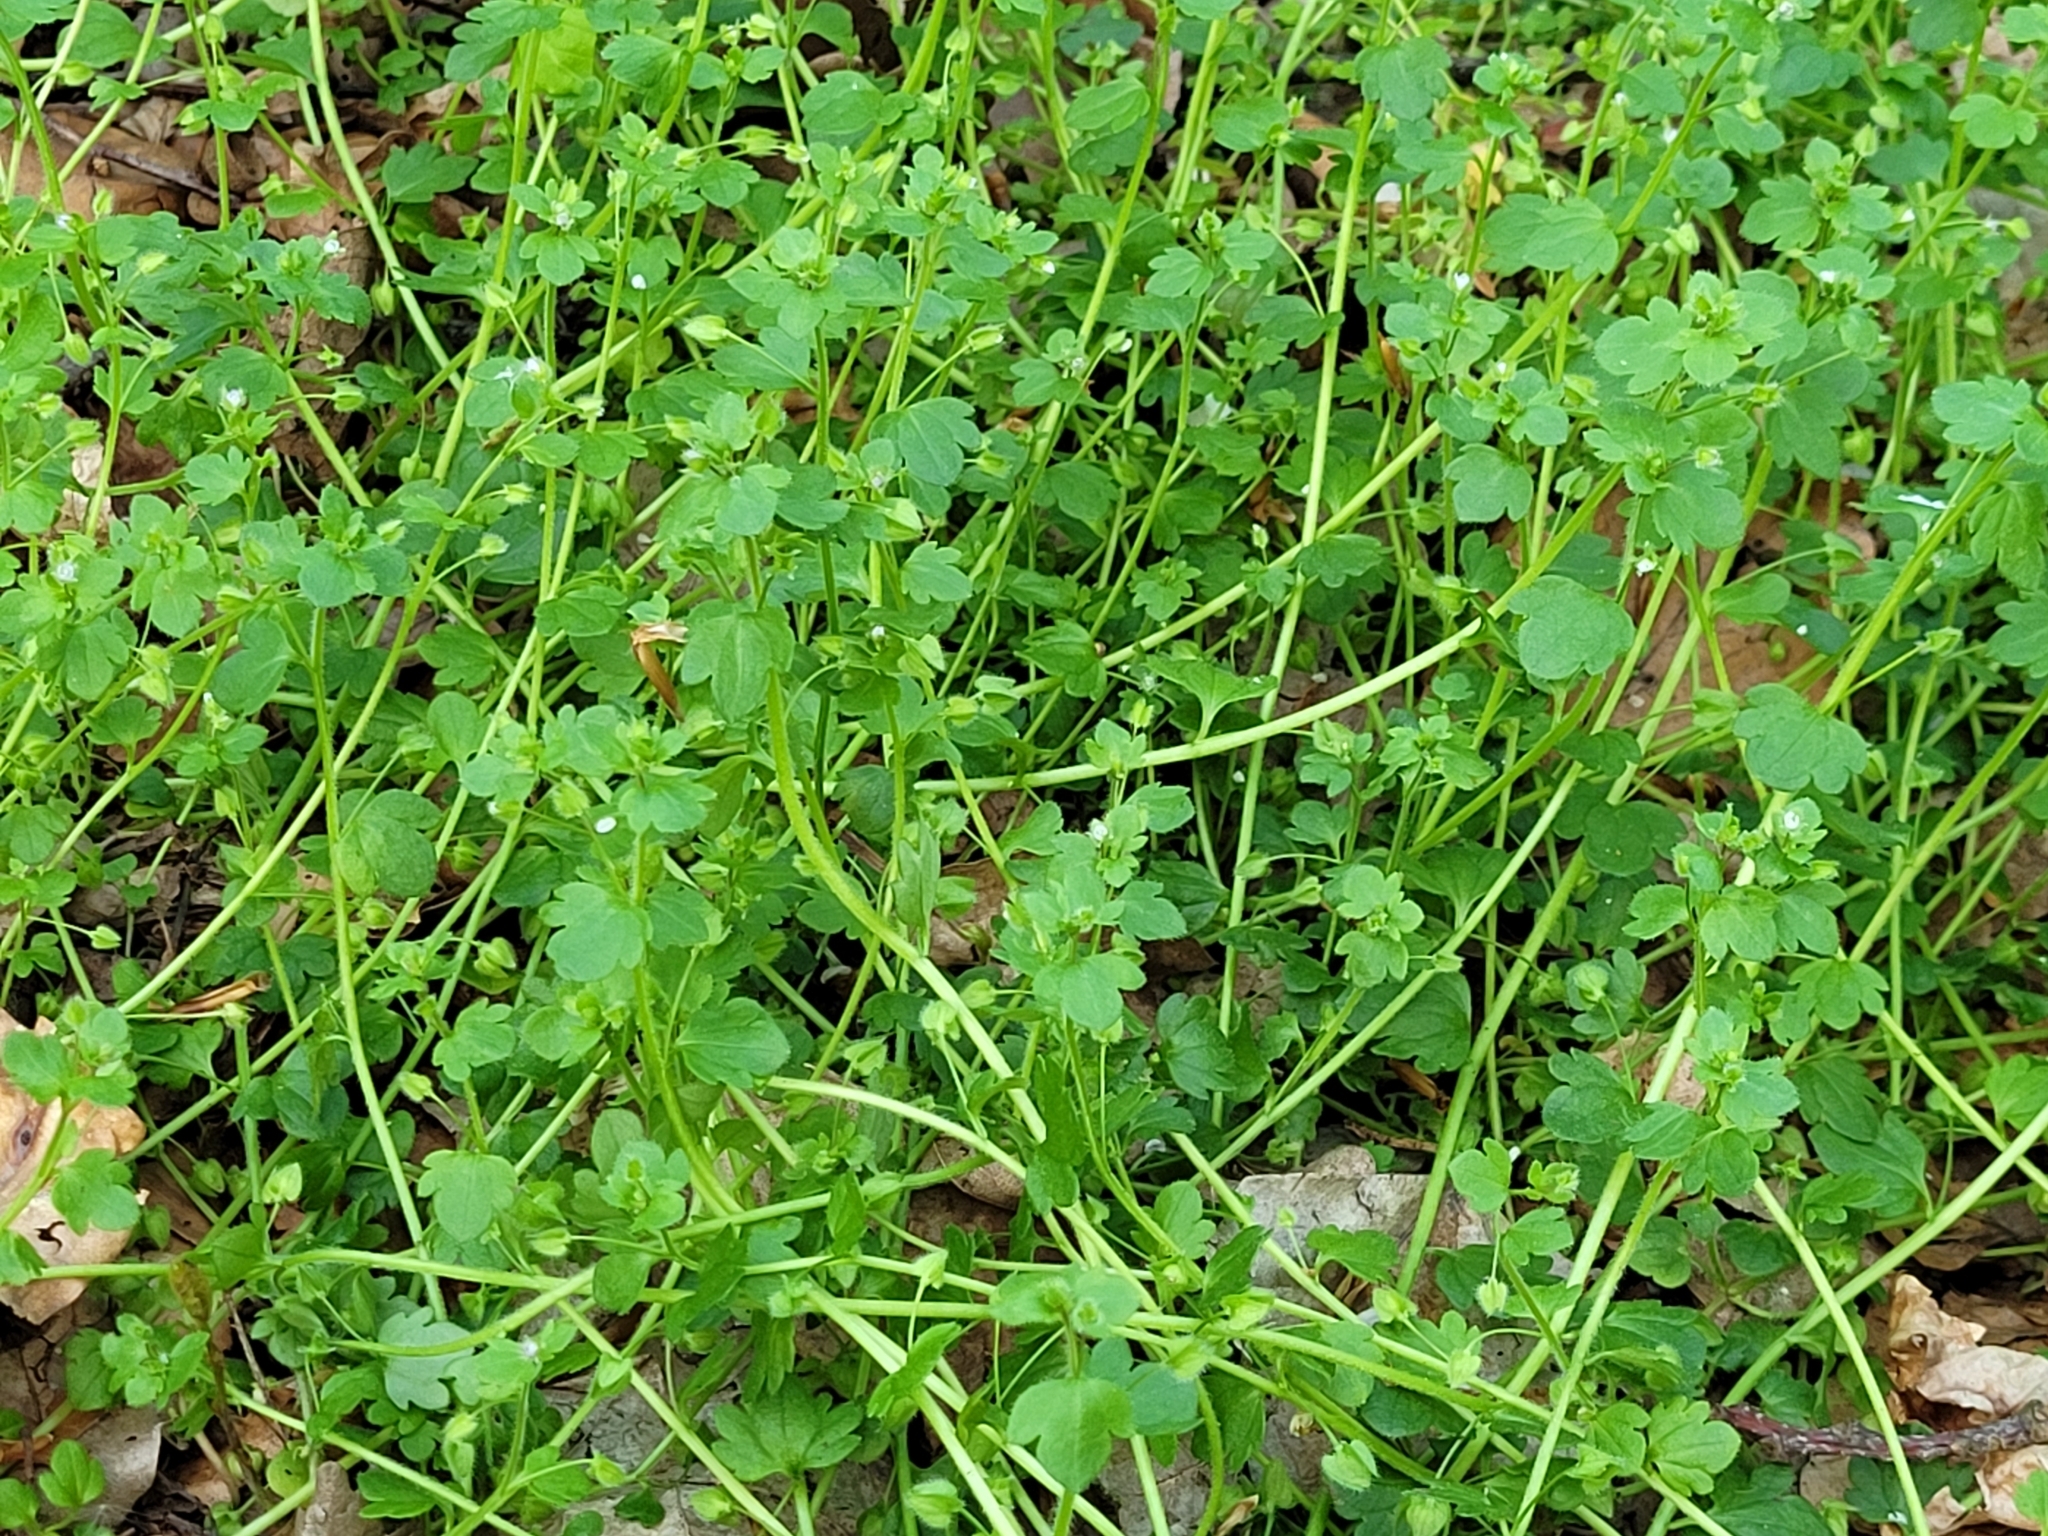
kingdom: Plantae
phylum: Tracheophyta
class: Magnoliopsida
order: Lamiales
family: Plantaginaceae
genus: Veronica
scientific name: Veronica sublobata
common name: False ivy-leaved speedwell
